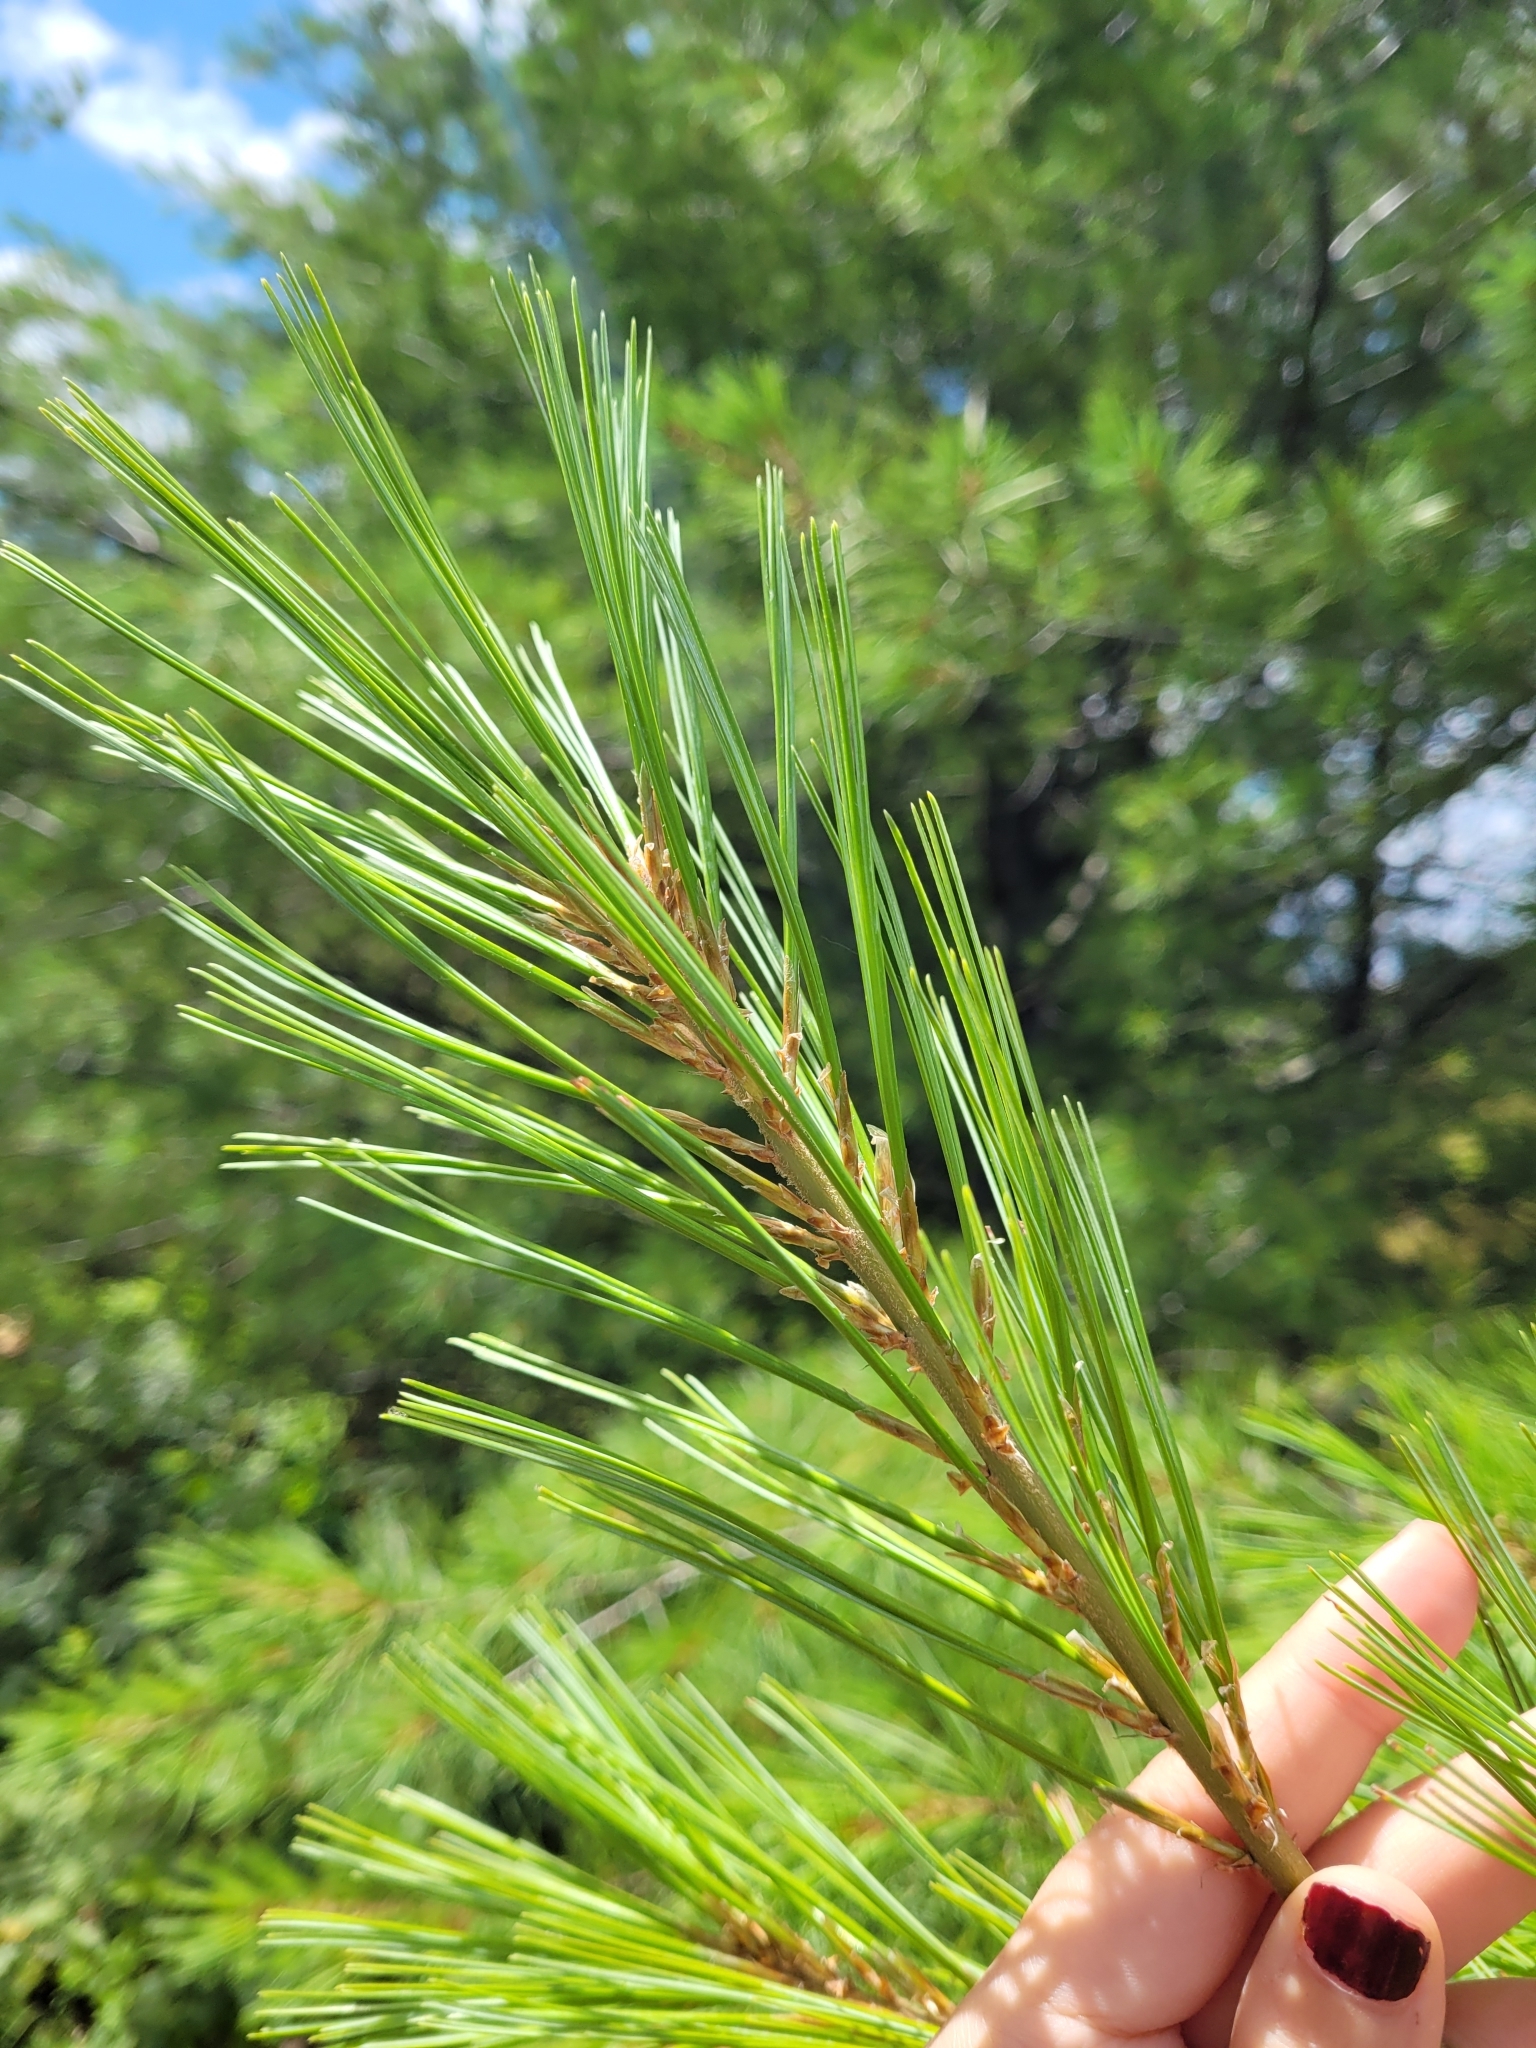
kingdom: Plantae
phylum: Tracheophyta
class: Pinopsida
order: Pinales
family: Pinaceae
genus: Pinus
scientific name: Pinus strobus
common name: Weymouth pine
